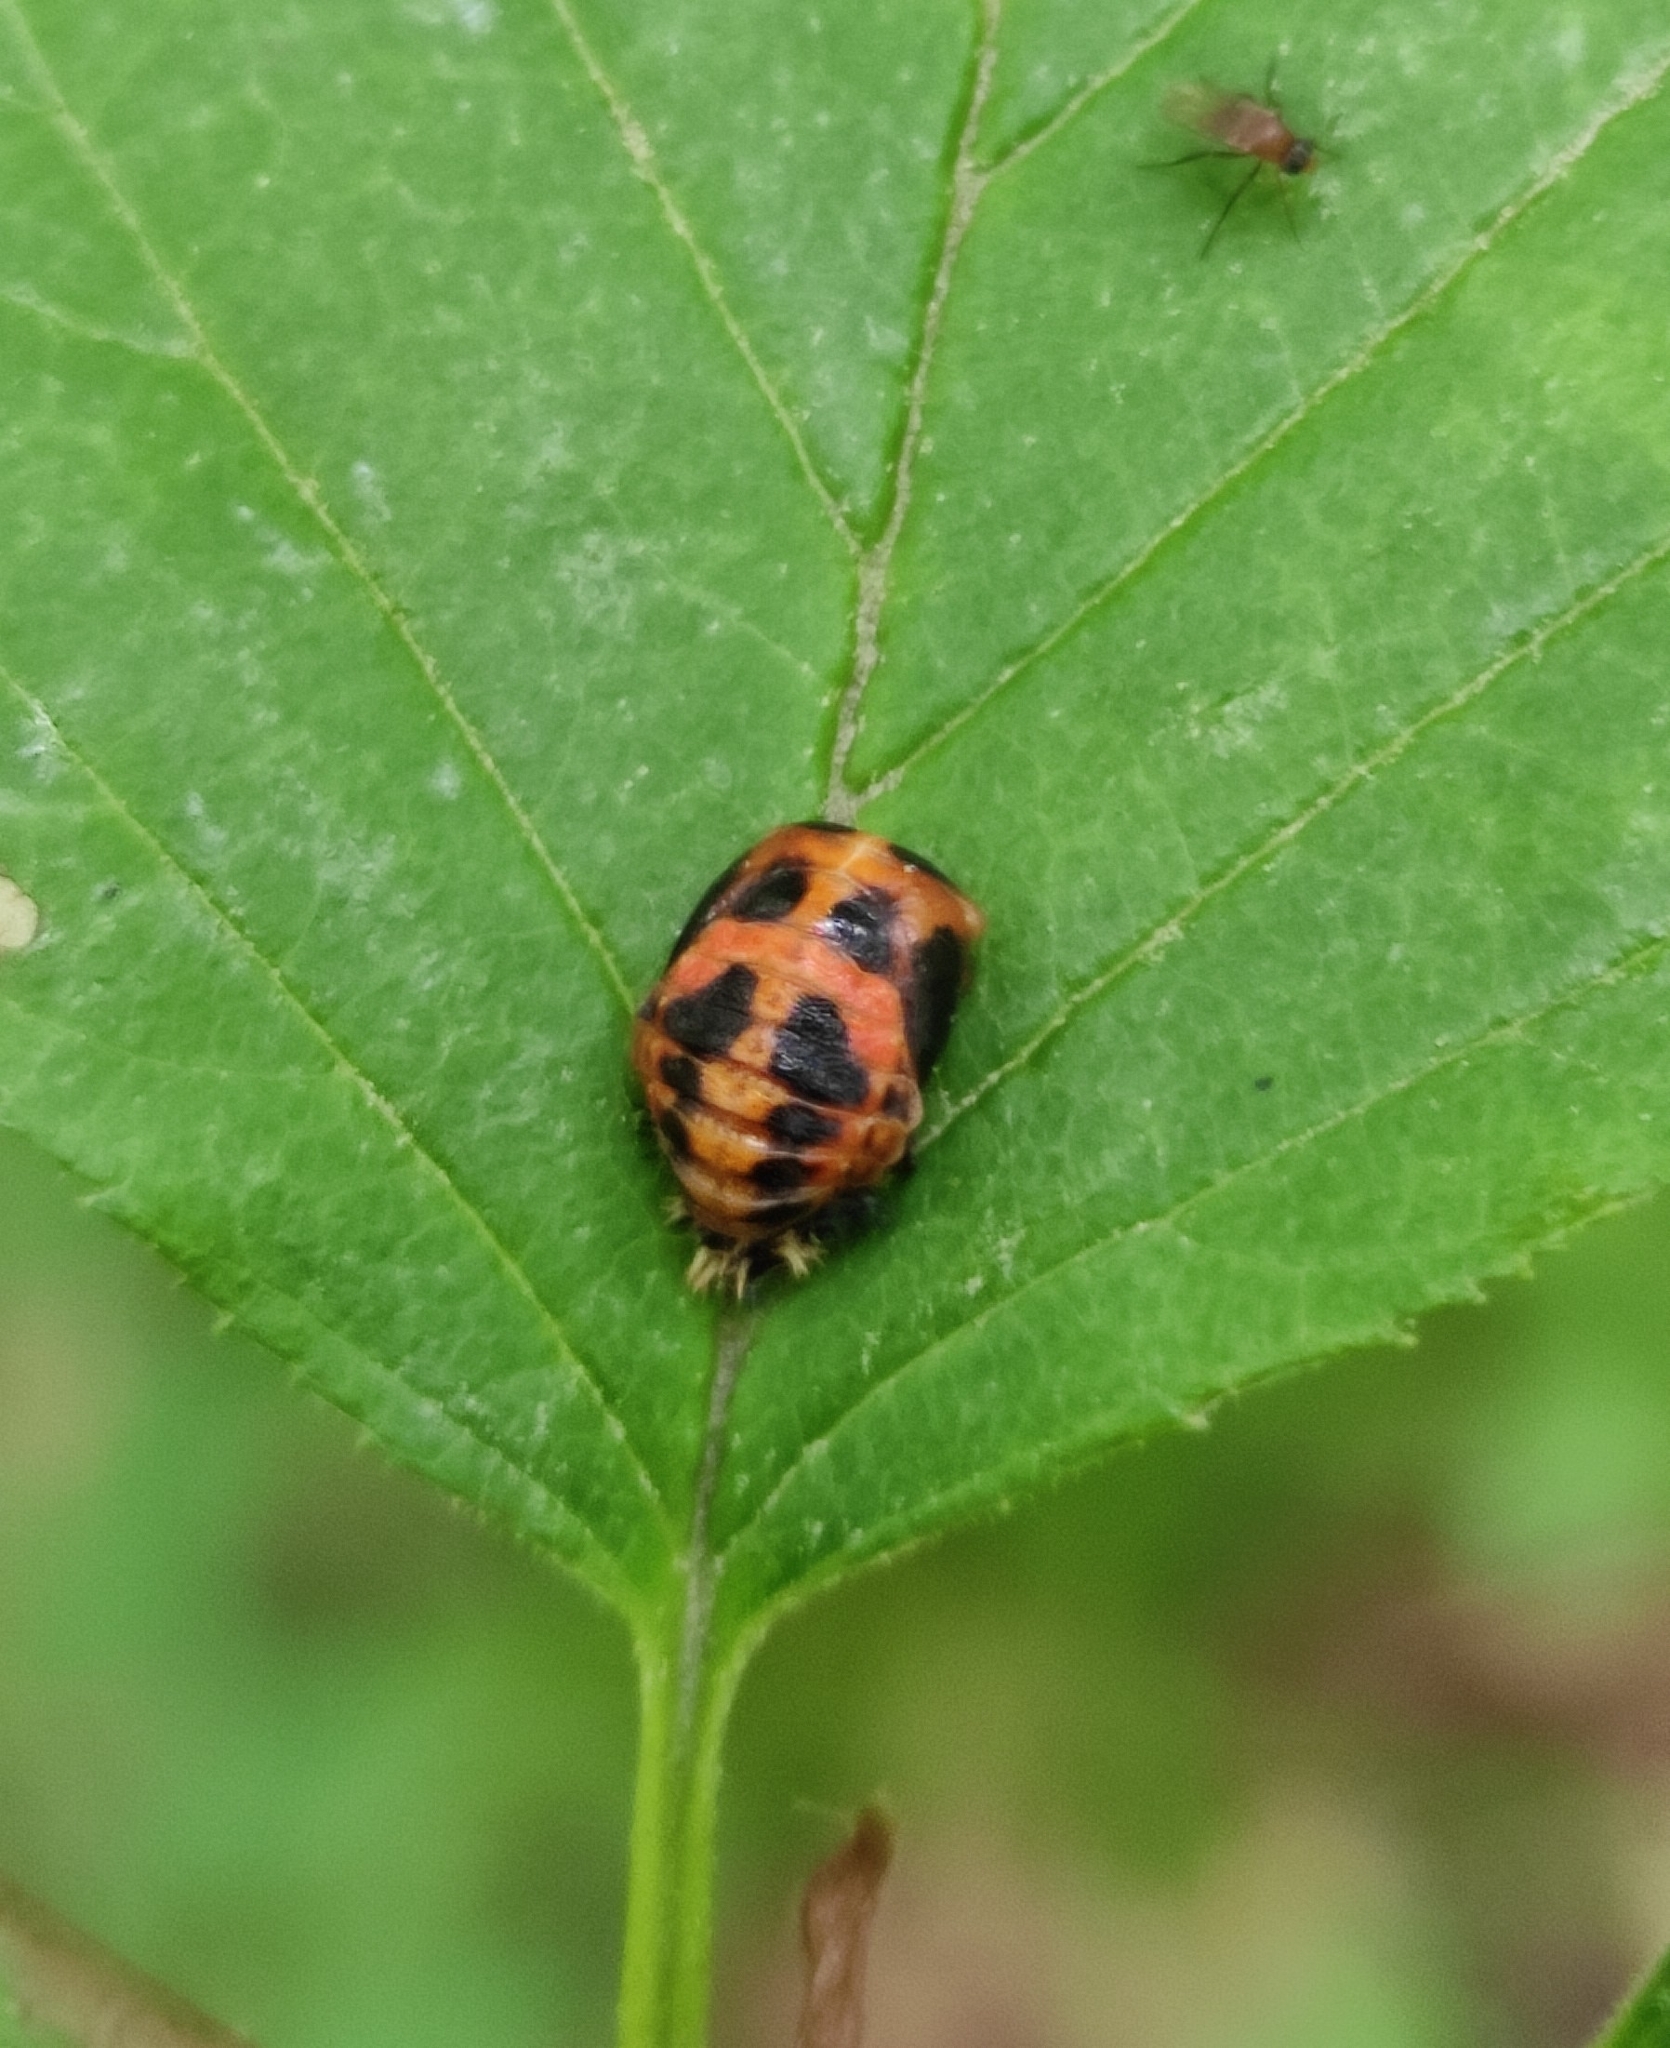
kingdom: Animalia
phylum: Arthropoda
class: Insecta
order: Coleoptera
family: Coccinellidae
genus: Harmonia
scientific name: Harmonia axyridis
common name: Harlequin ladybird
